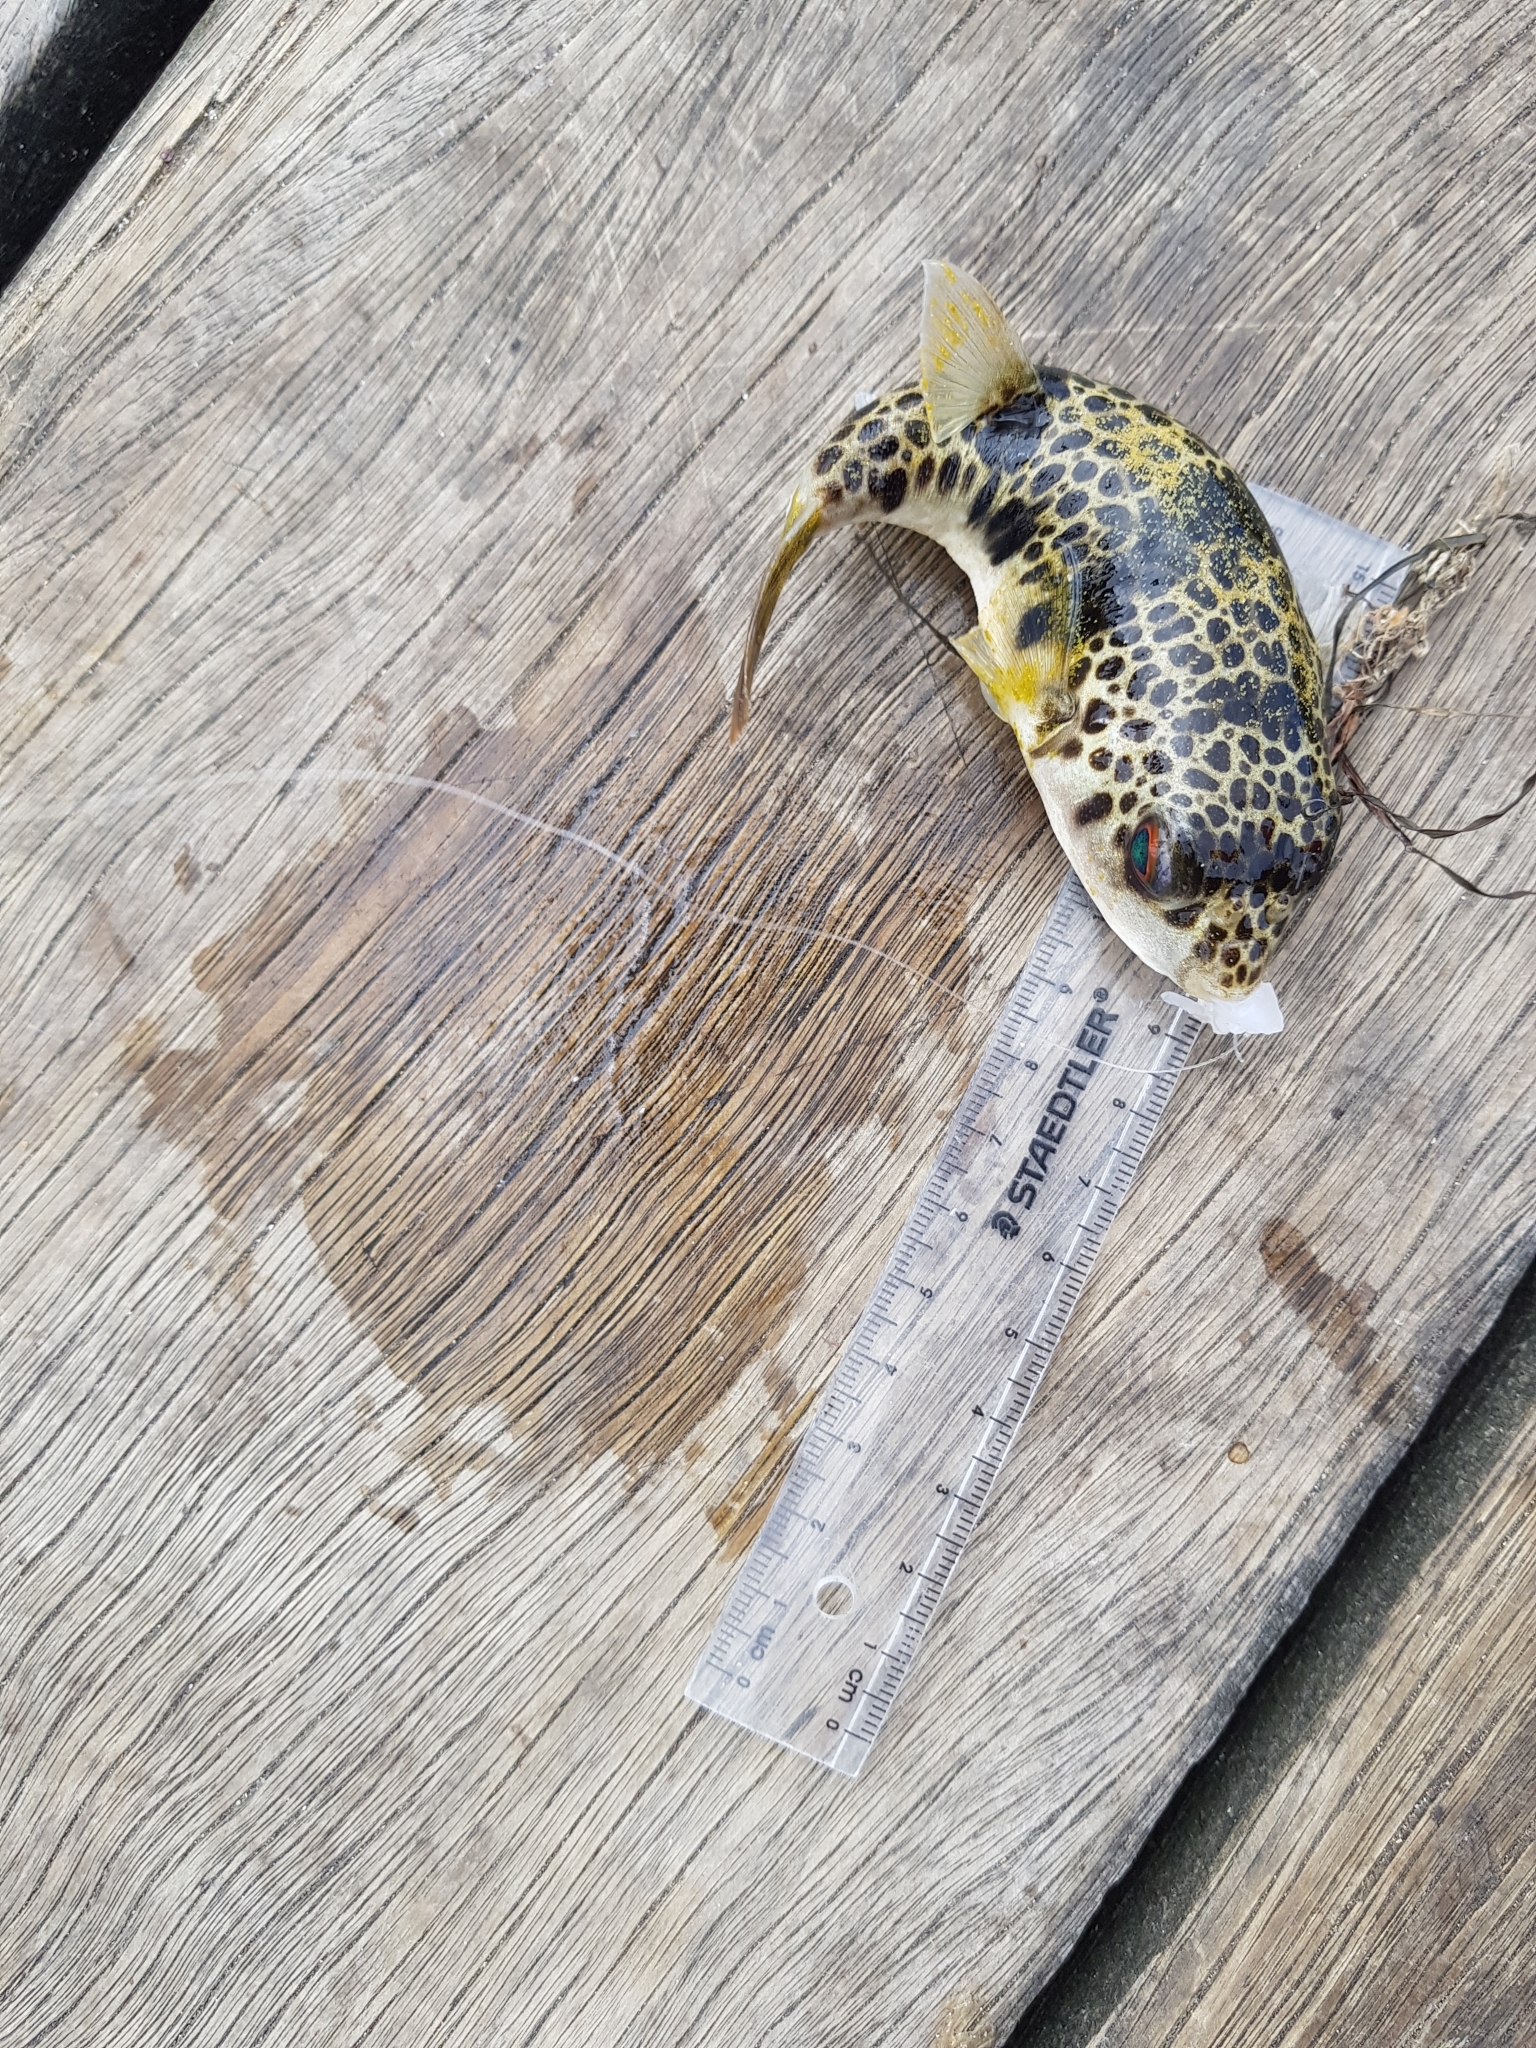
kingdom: Animalia
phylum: Chordata
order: Tetraodontiformes
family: Tetraodontidae
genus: Tetractenos
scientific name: Tetractenos glaber
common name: Smooth toadfish
